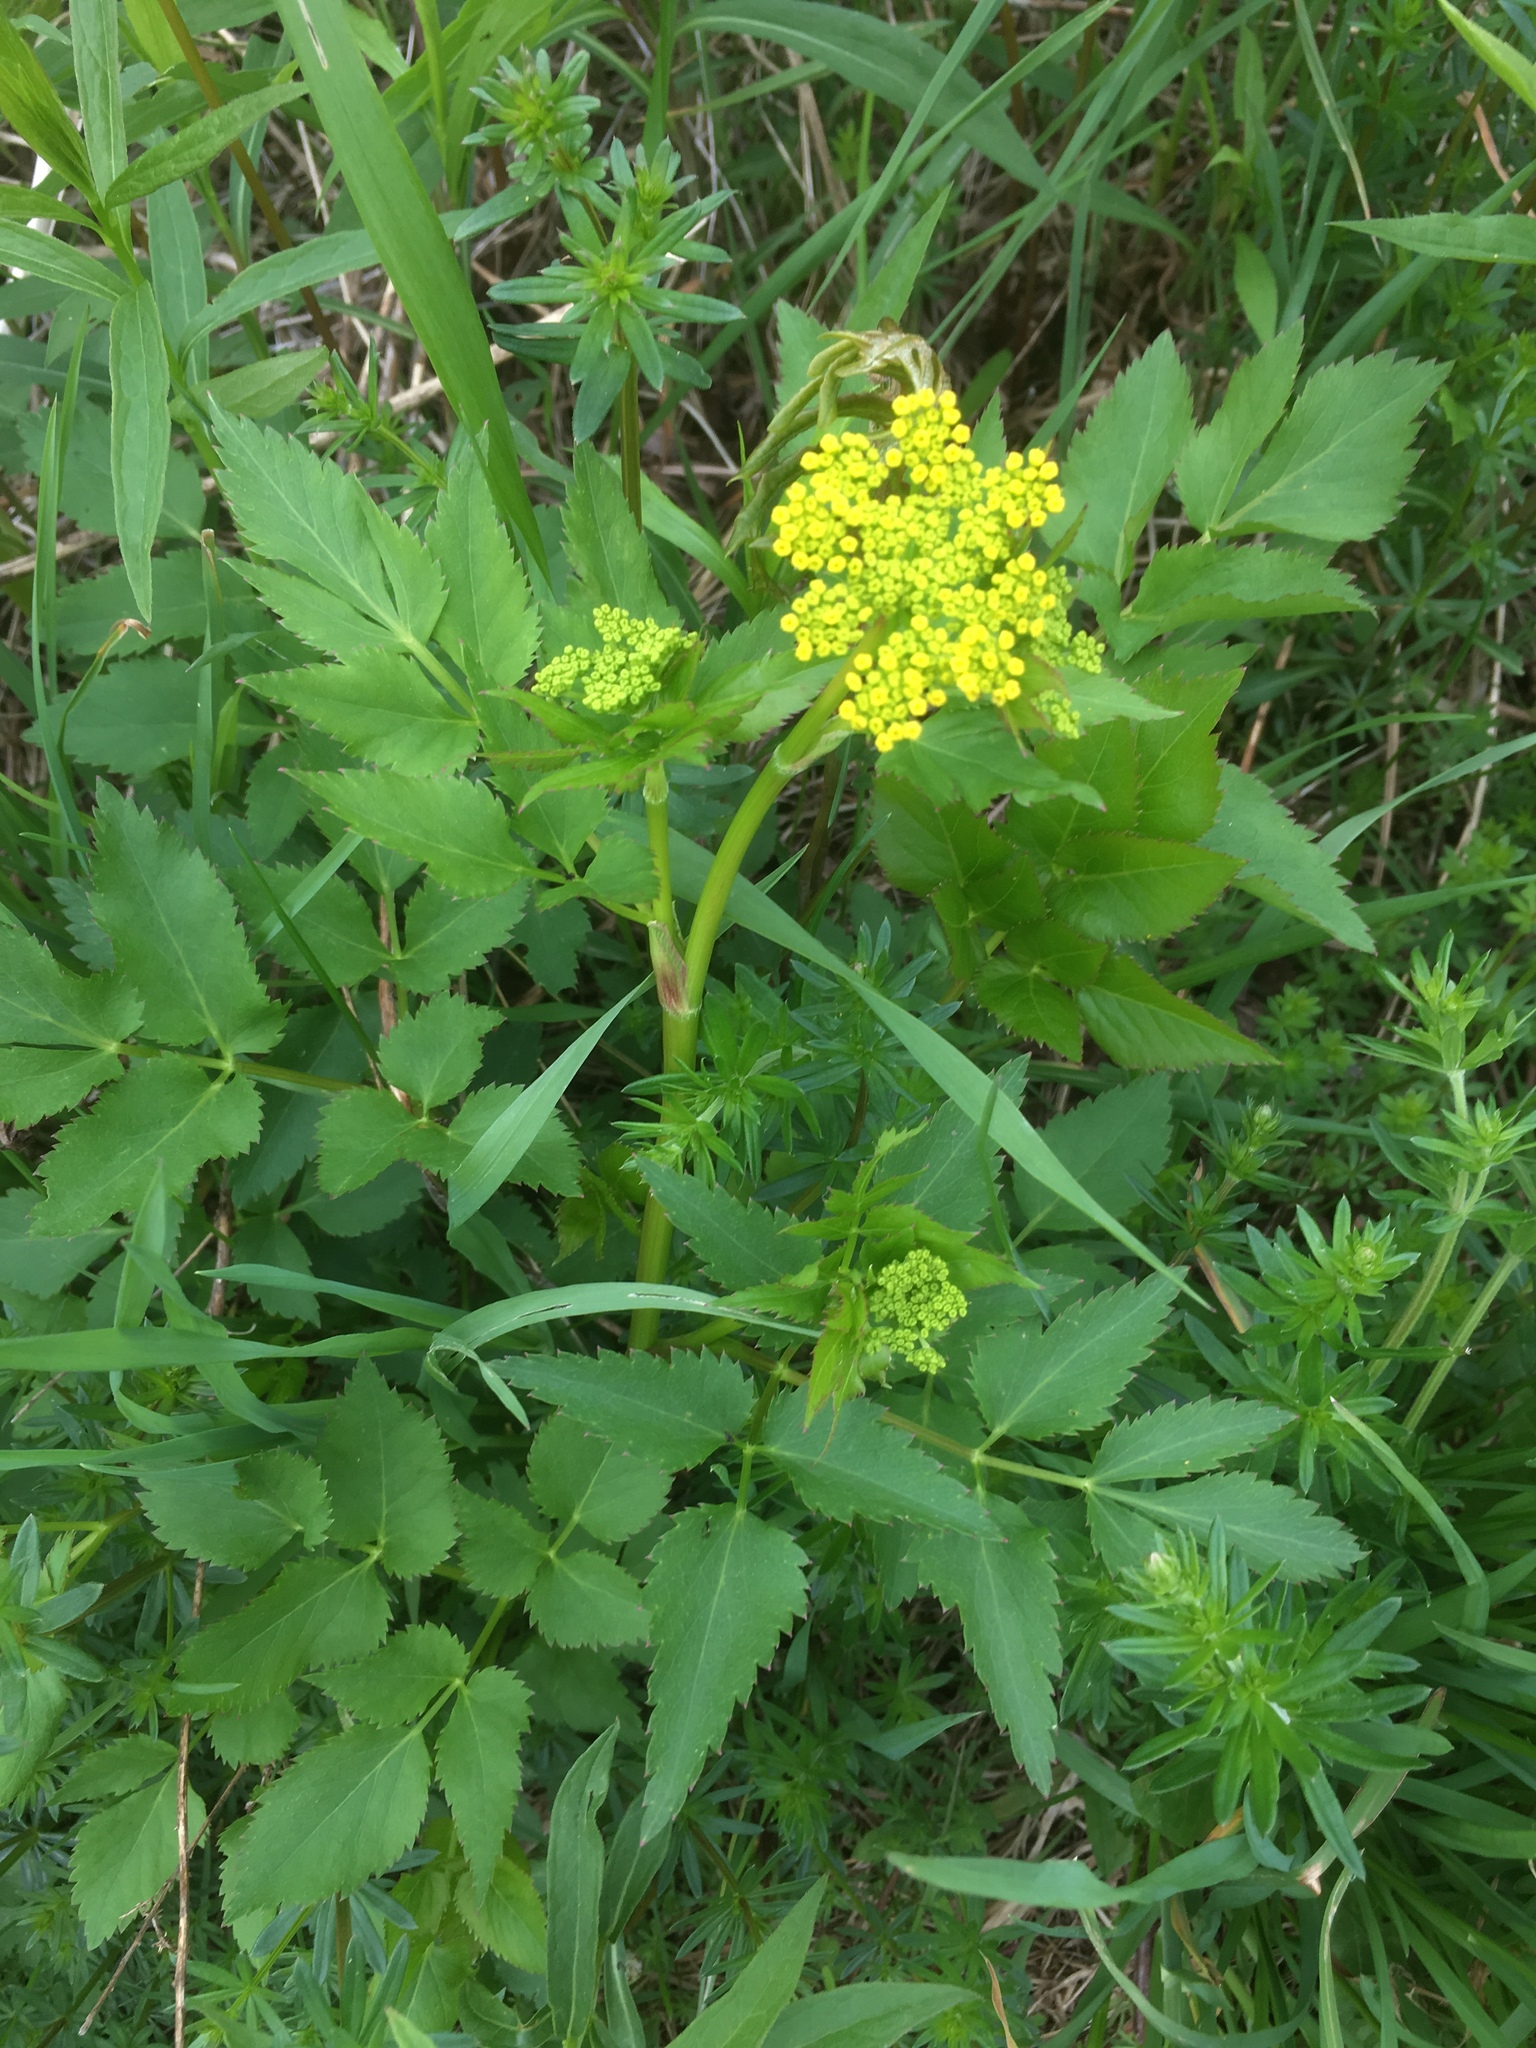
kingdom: Plantae
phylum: Tracheophyta
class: Magnoliopsida
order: Apiales
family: Apiaceae
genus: Zizia
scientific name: Zizia aurea
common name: Golden alexanders
